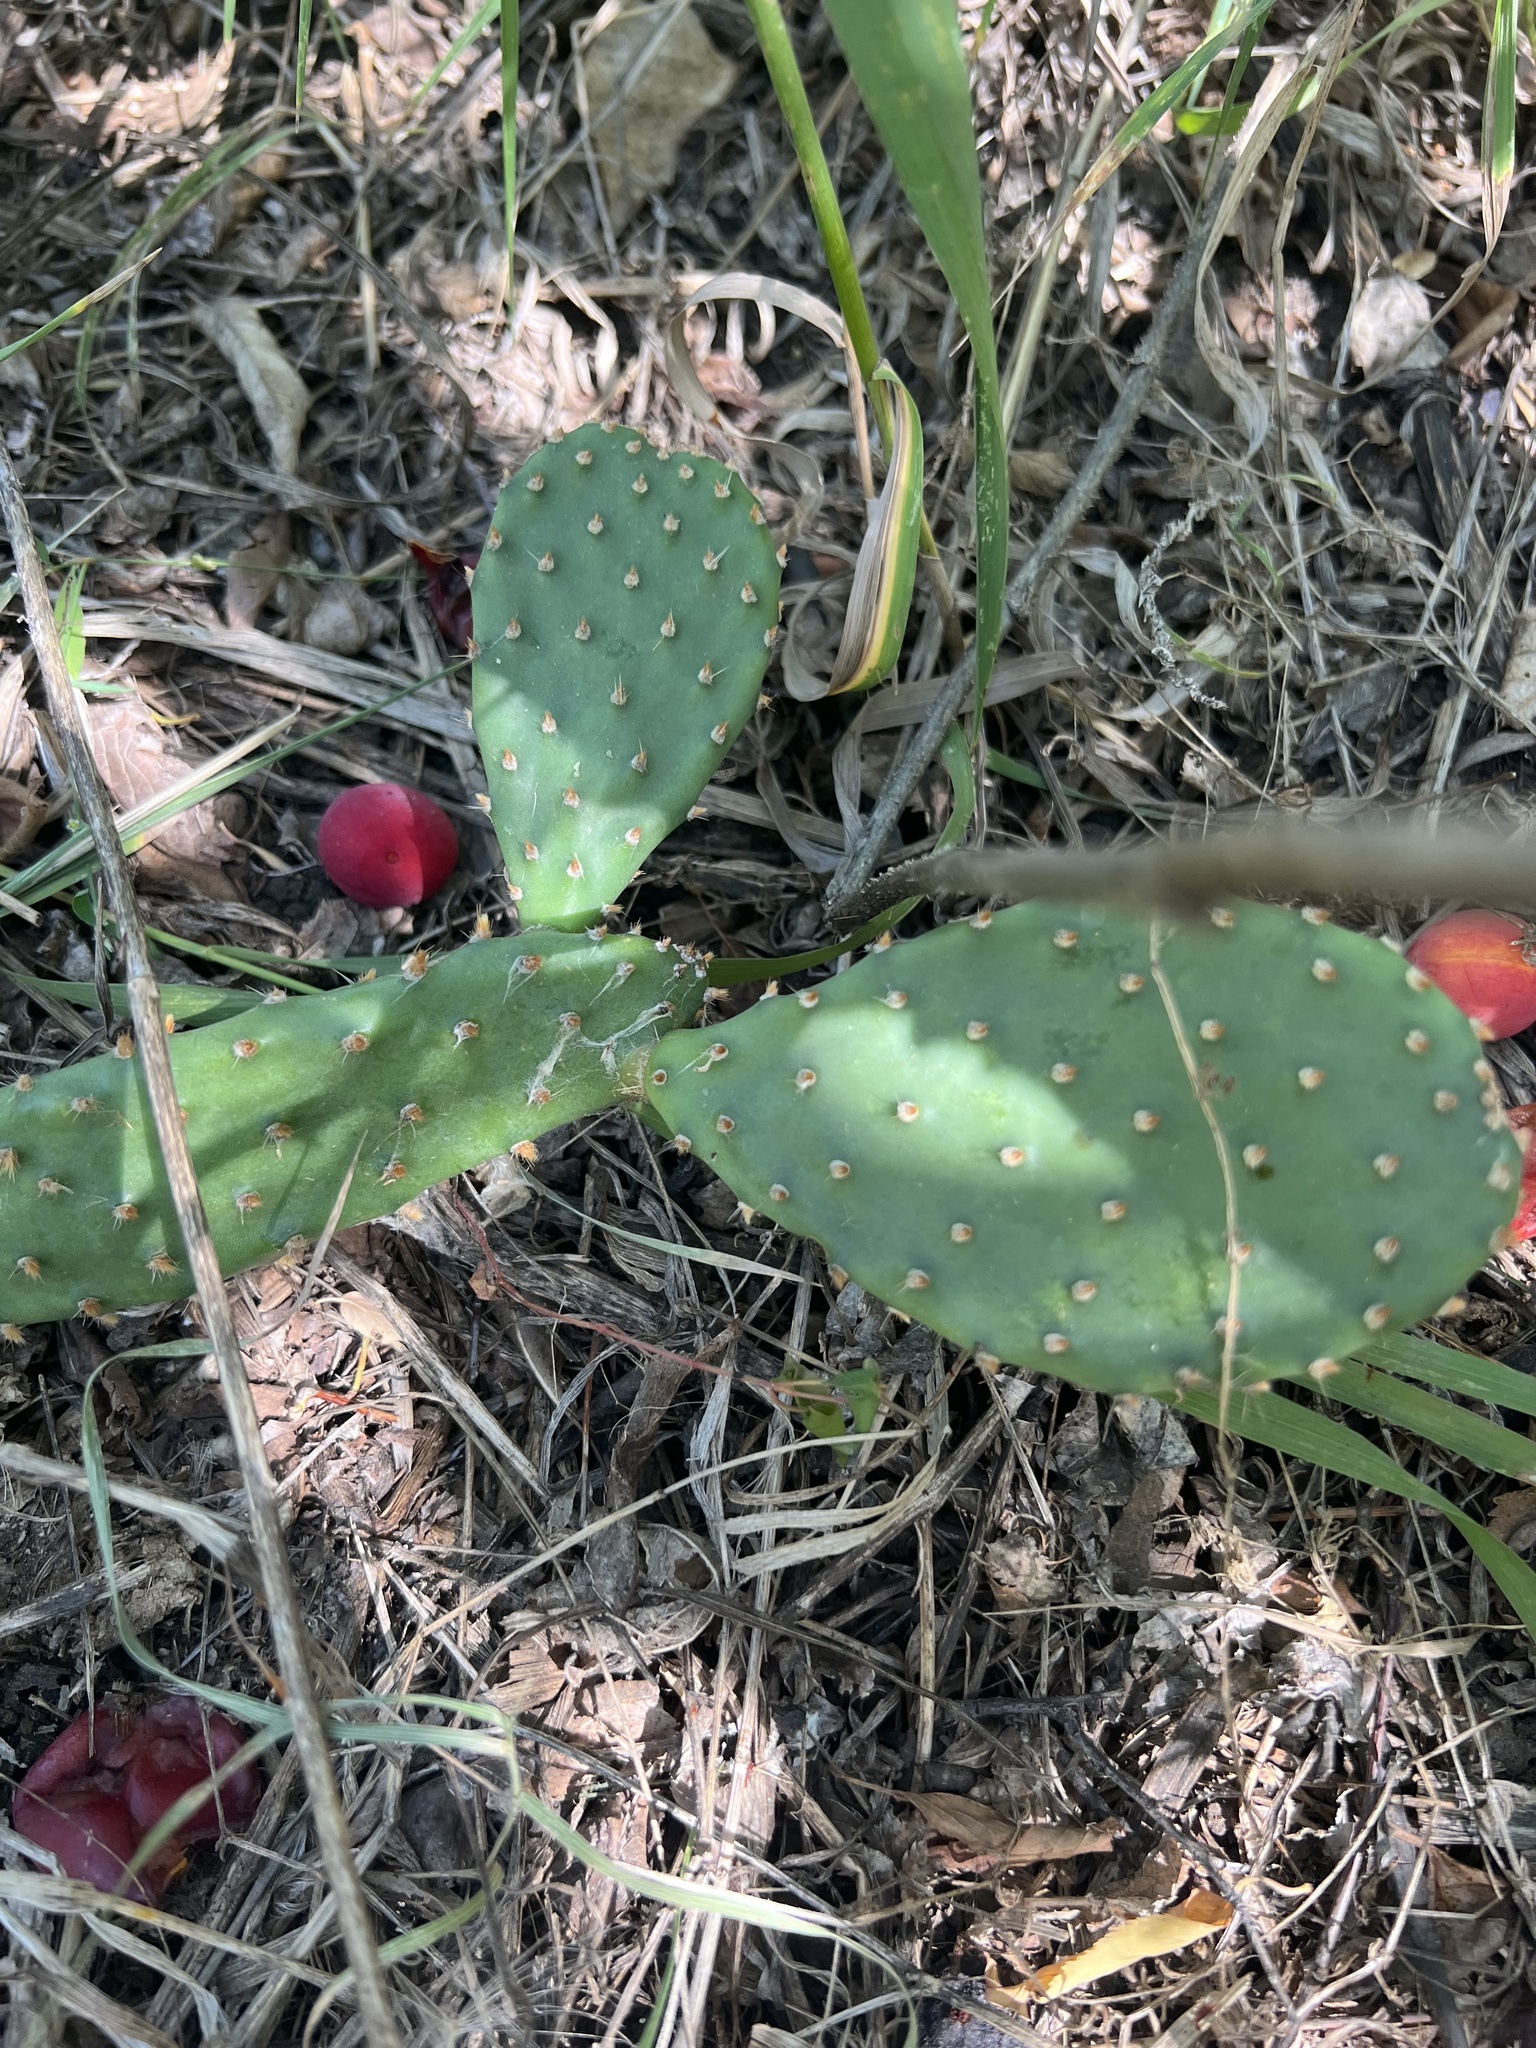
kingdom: Plantae
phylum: Tracheophyta
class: Magnoliopsida
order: Caryophyllales
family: Cactaceae
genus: Opuntia
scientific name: Opuntia macrorhiza
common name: Grassland pricklypear
